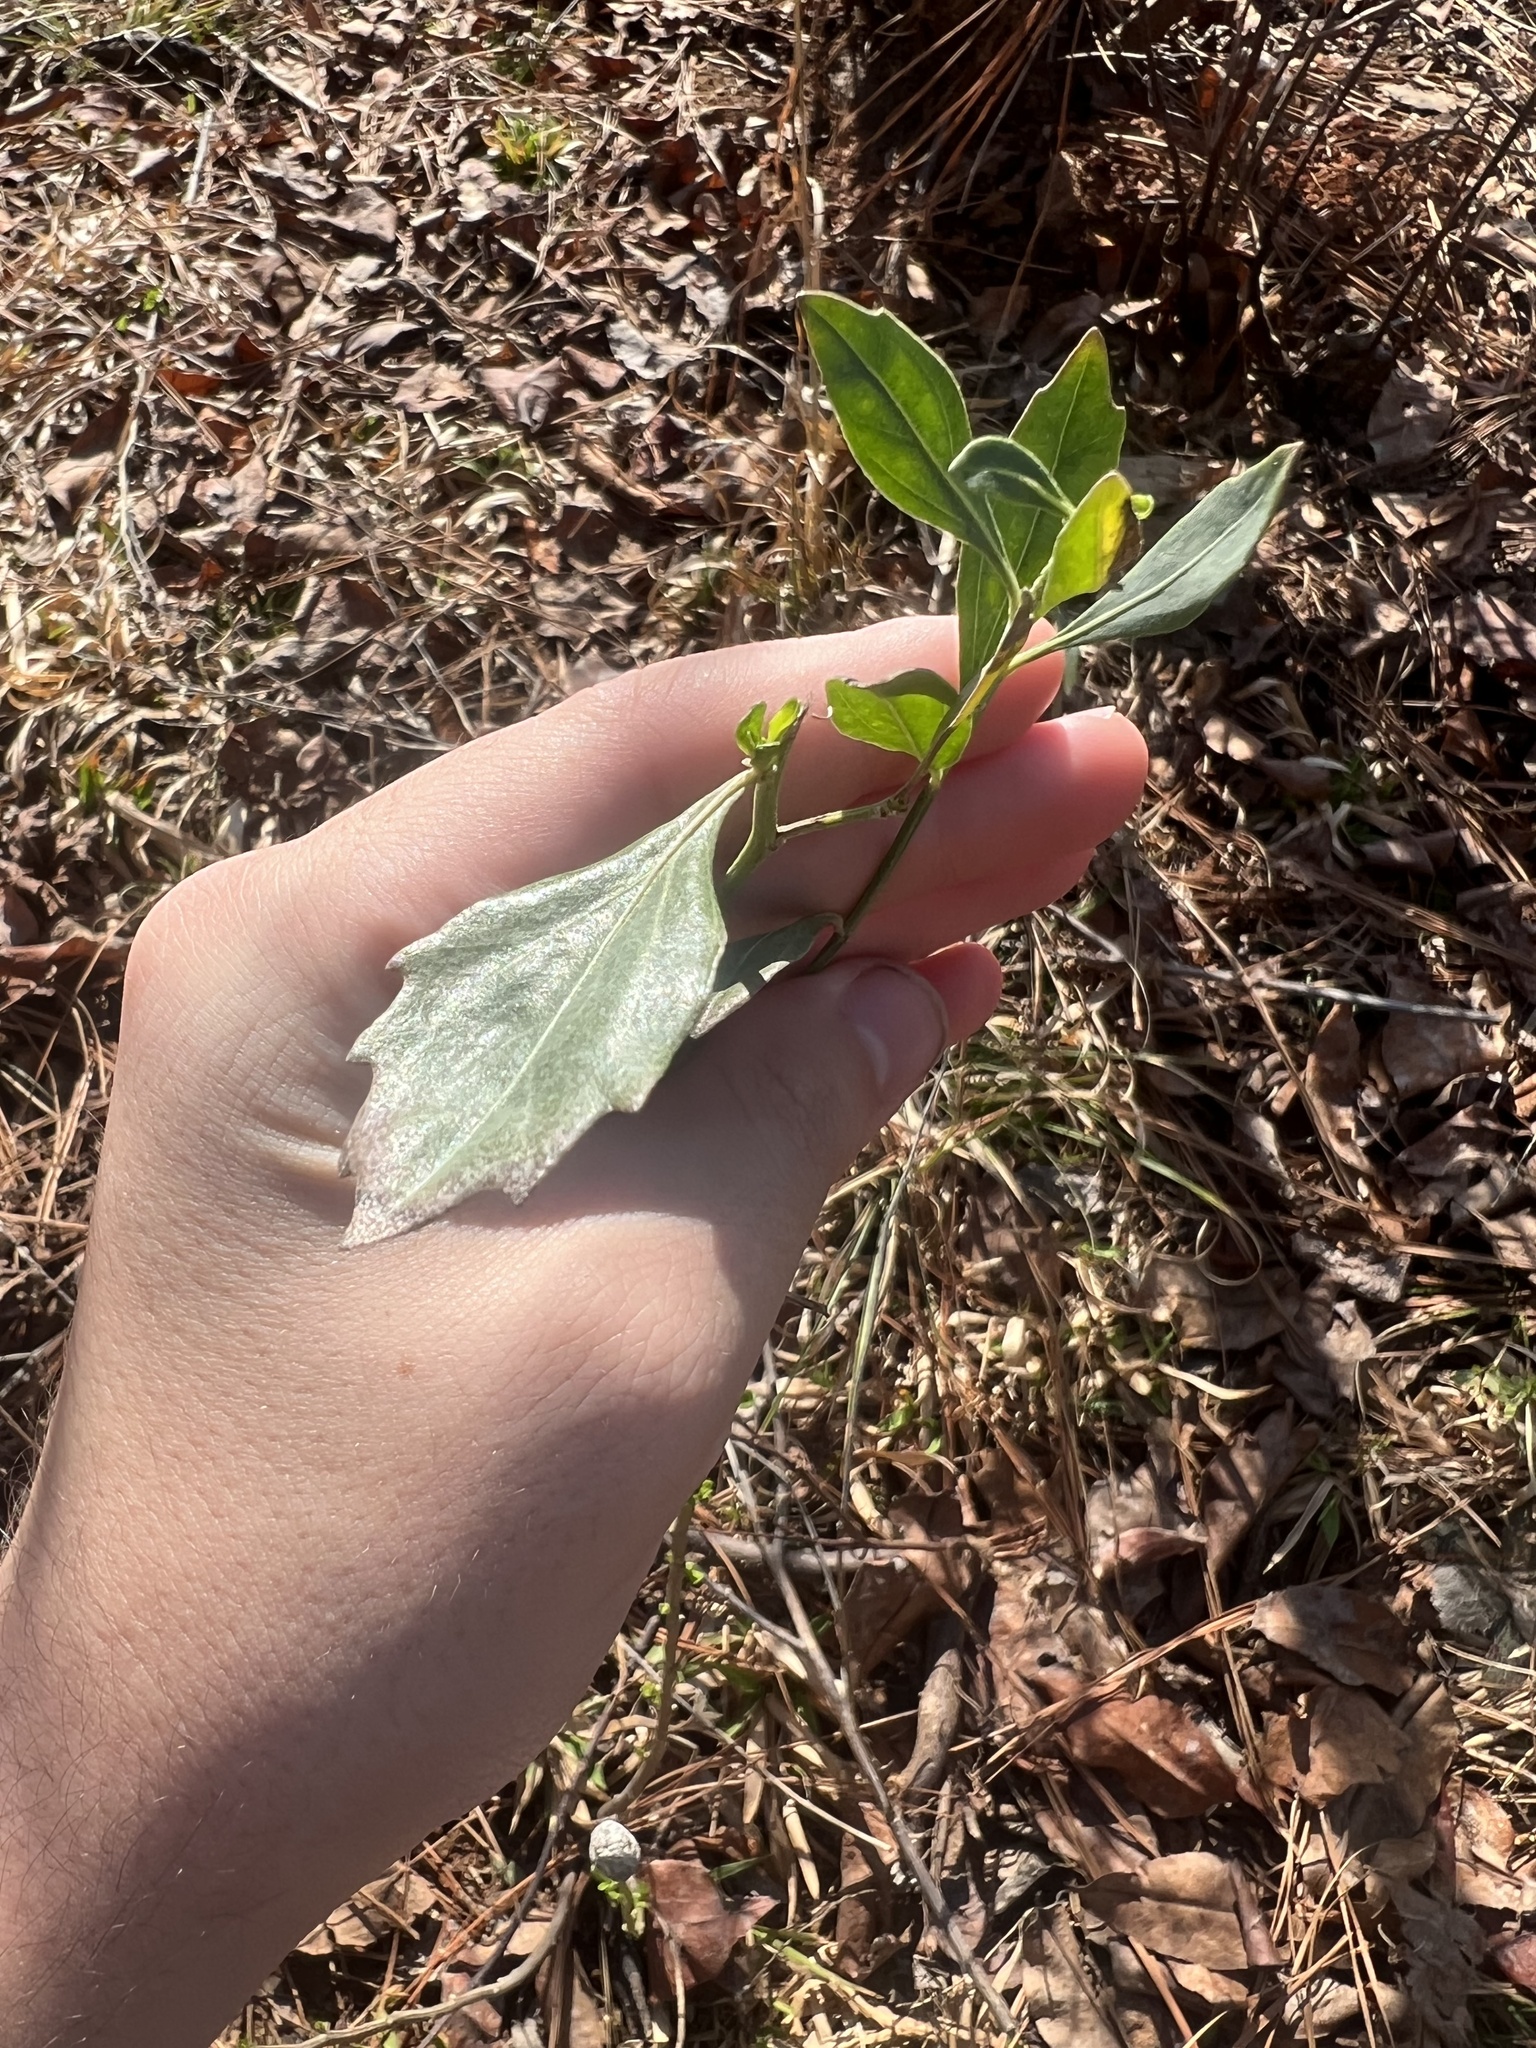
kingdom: Plantae
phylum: Tracheophyta
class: Magnoliopsida
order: Asterales
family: Asteraceae
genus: Baccharis
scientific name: Baccharis halimifolia
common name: Eastern baccharis
